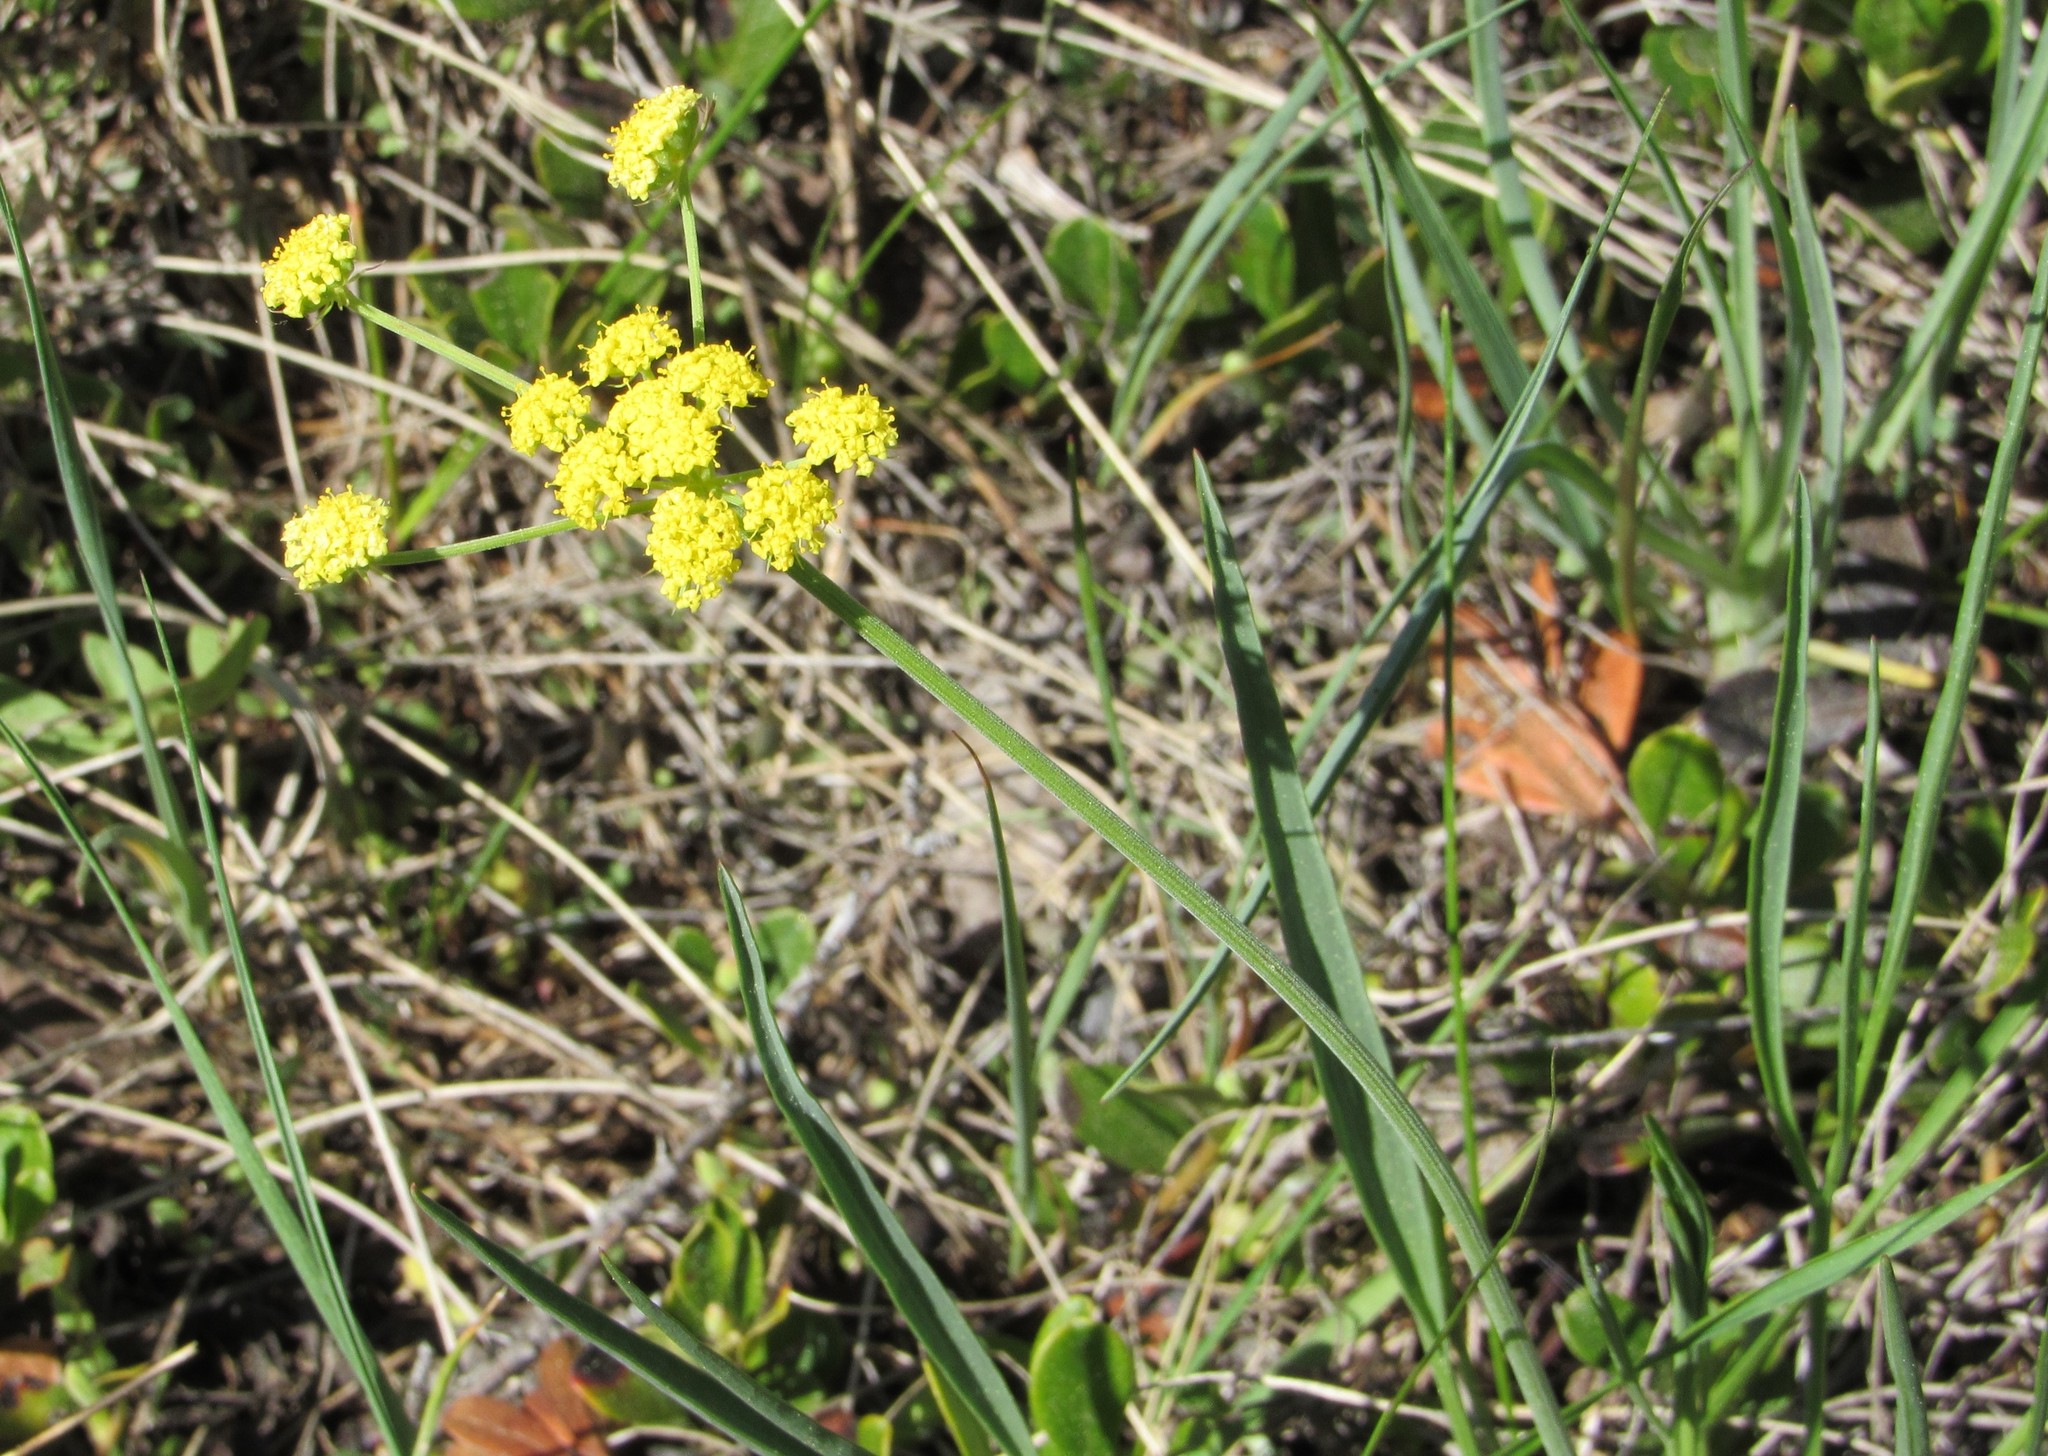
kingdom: Plantae
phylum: Tracheophyta
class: Magnoliopsida
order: Apiales
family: Apiaceae
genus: Lomatium
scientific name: Lomatium triternatum
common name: Ternate lomatium
